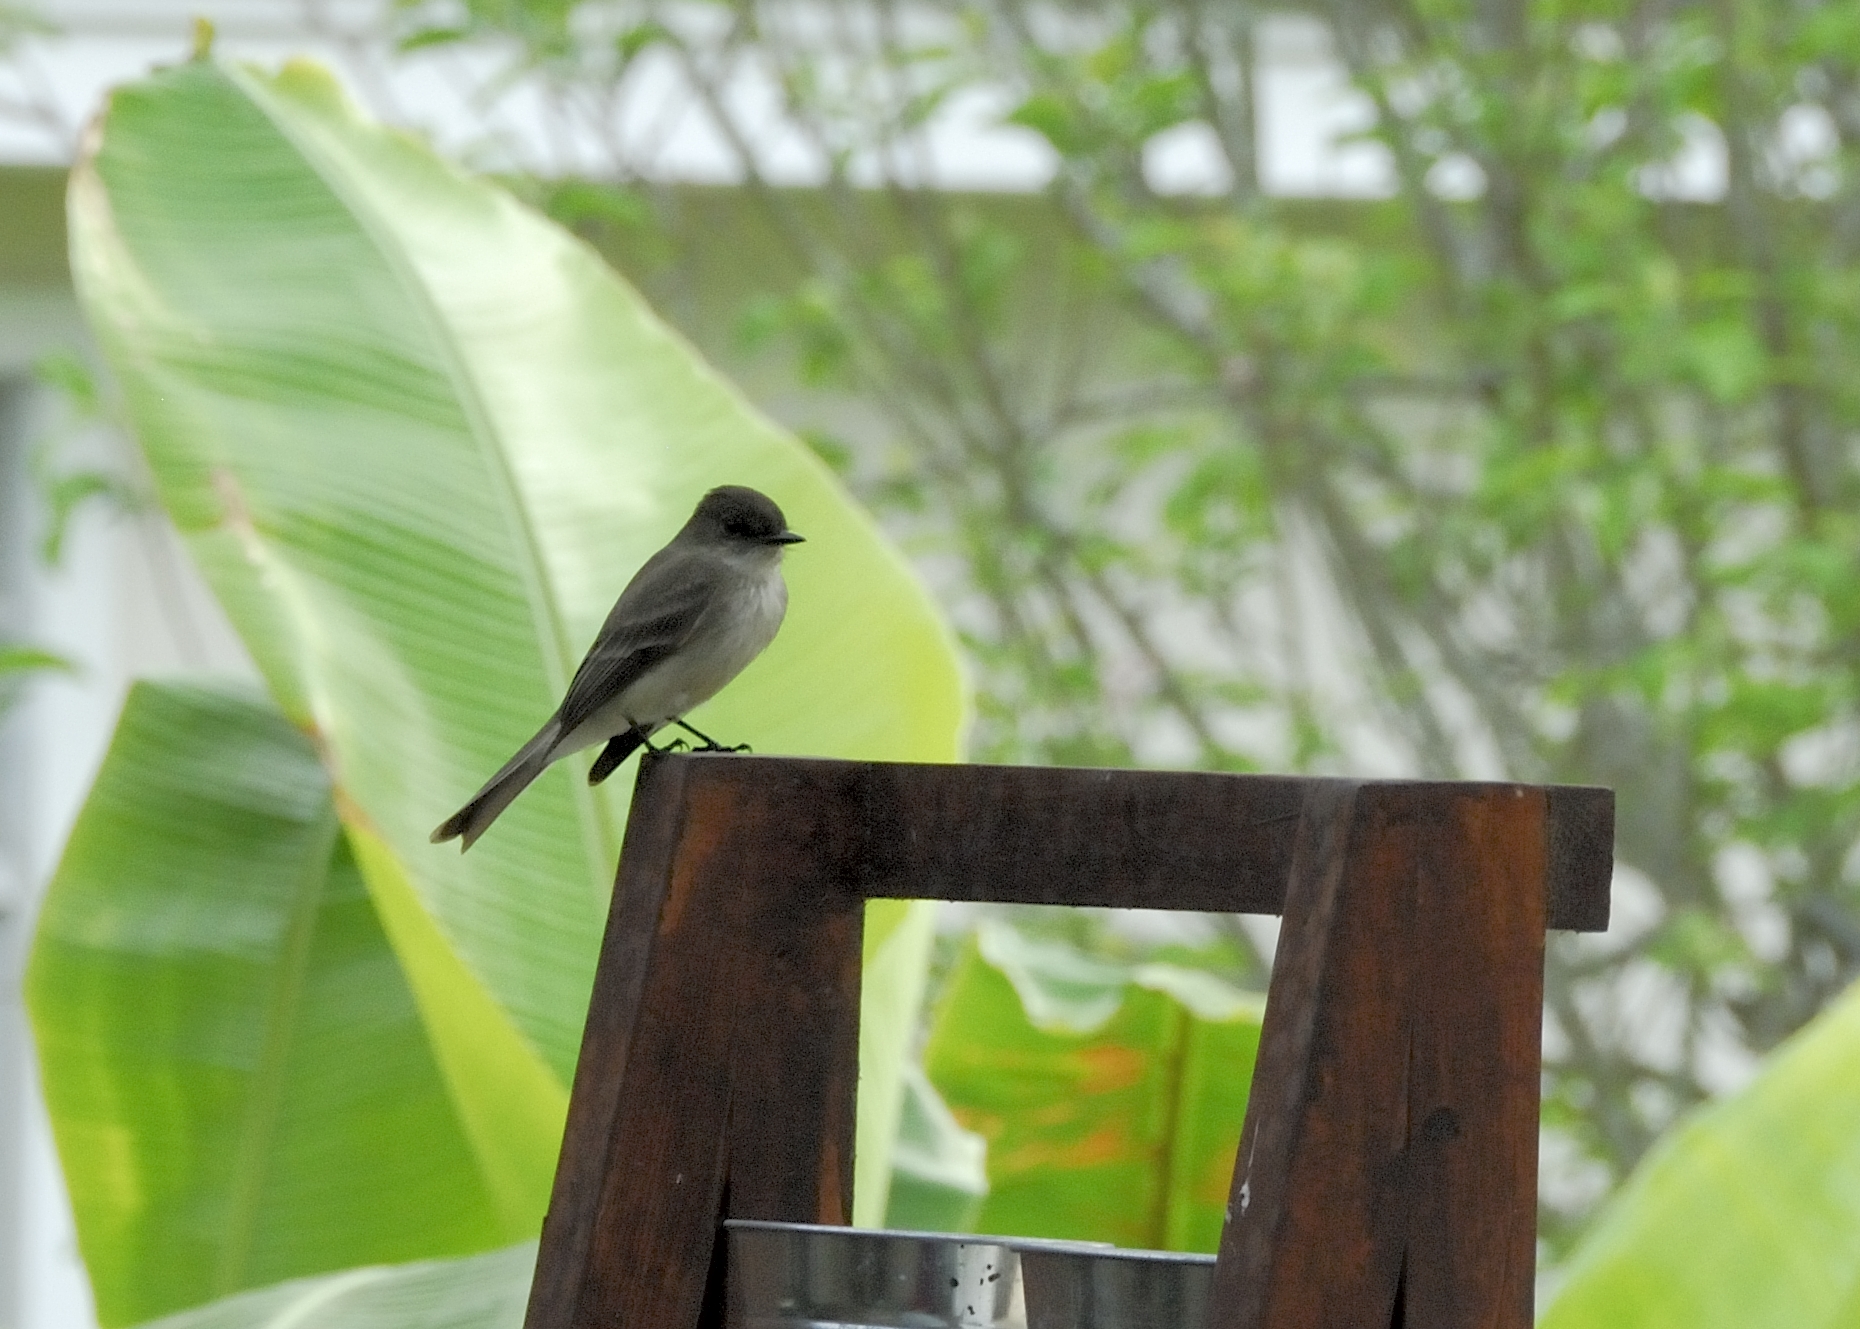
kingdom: Animalia
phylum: Chordata
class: Aves
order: Passeriformes
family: Tyrannidae
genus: Sayornis
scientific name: Sayornis phoebe
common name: Eastern phoebe
